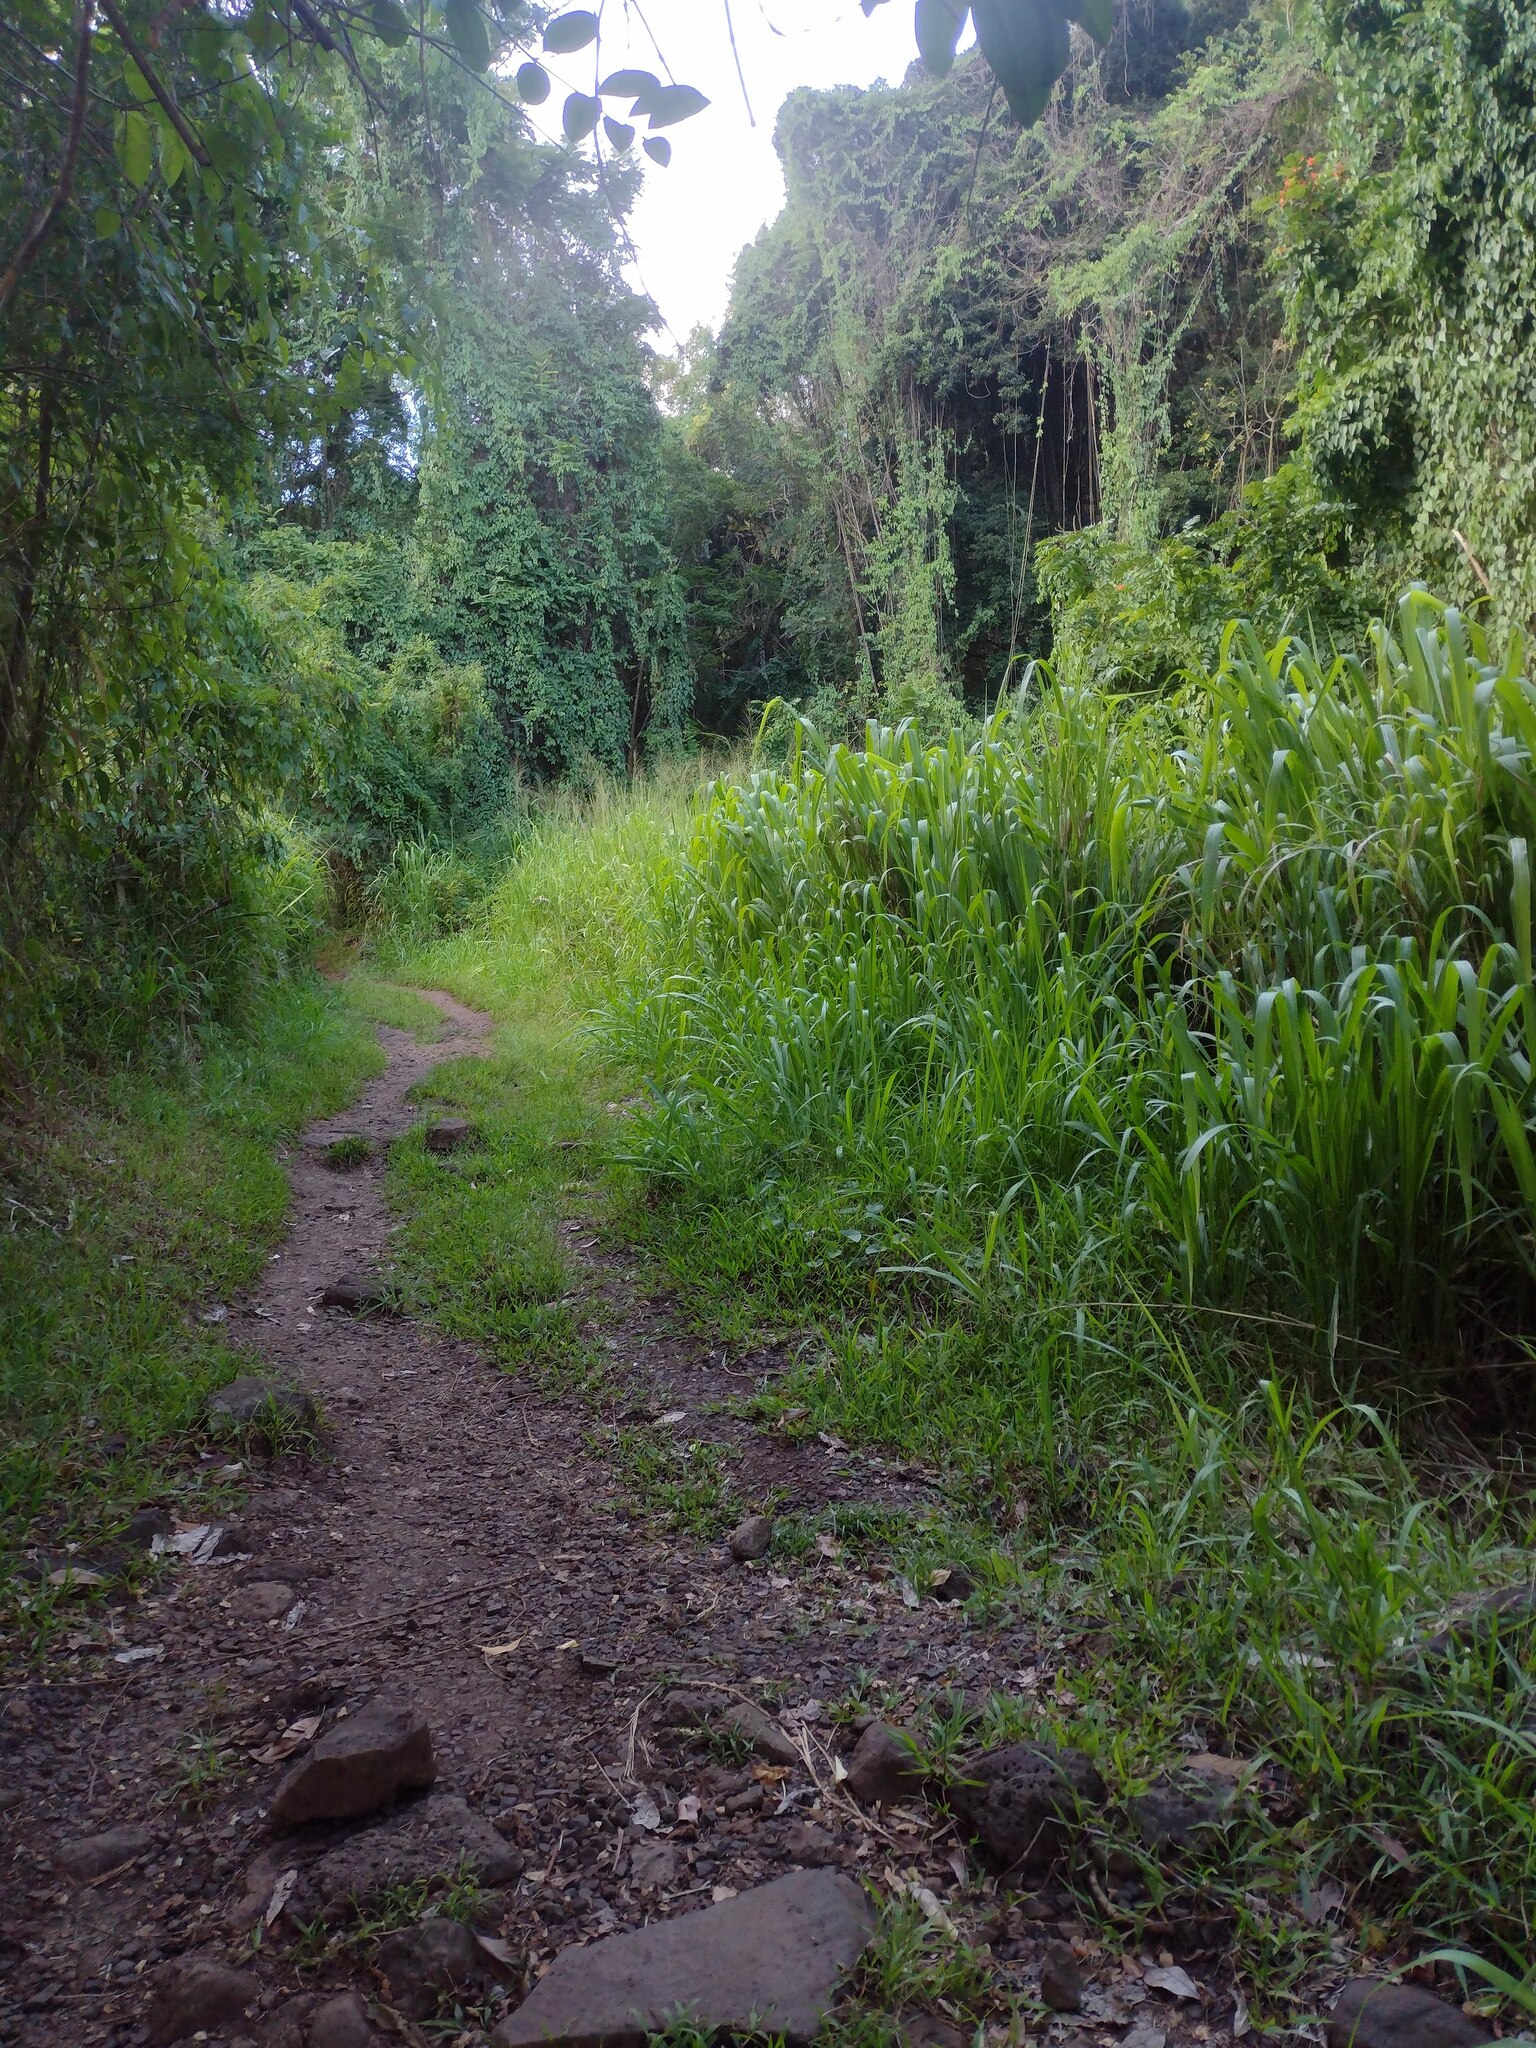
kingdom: Plantae
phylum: Tracheophyta
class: Liliopsida
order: Poales
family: Poaceae
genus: Megathyrsus
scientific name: Megathyrsus maximus
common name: Guineagrass
